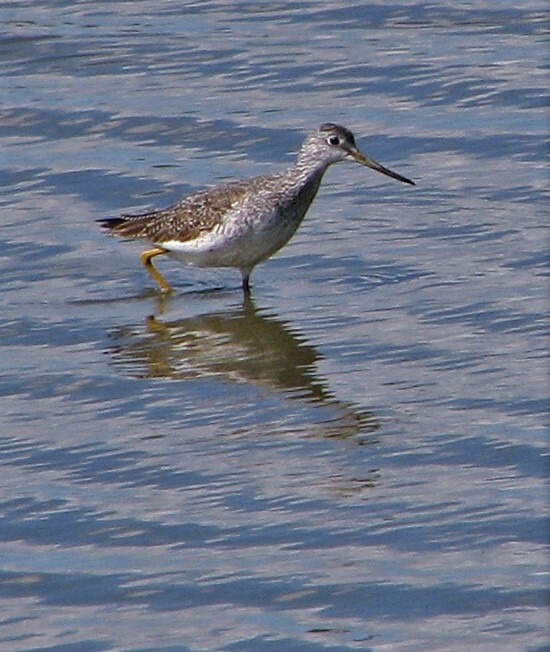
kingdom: Animalia
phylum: Chordata
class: Aves
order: Charadriiformes
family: Scolopacidae
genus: Tringa
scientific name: Tringa melanoleuca
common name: Greater yellowlegs
